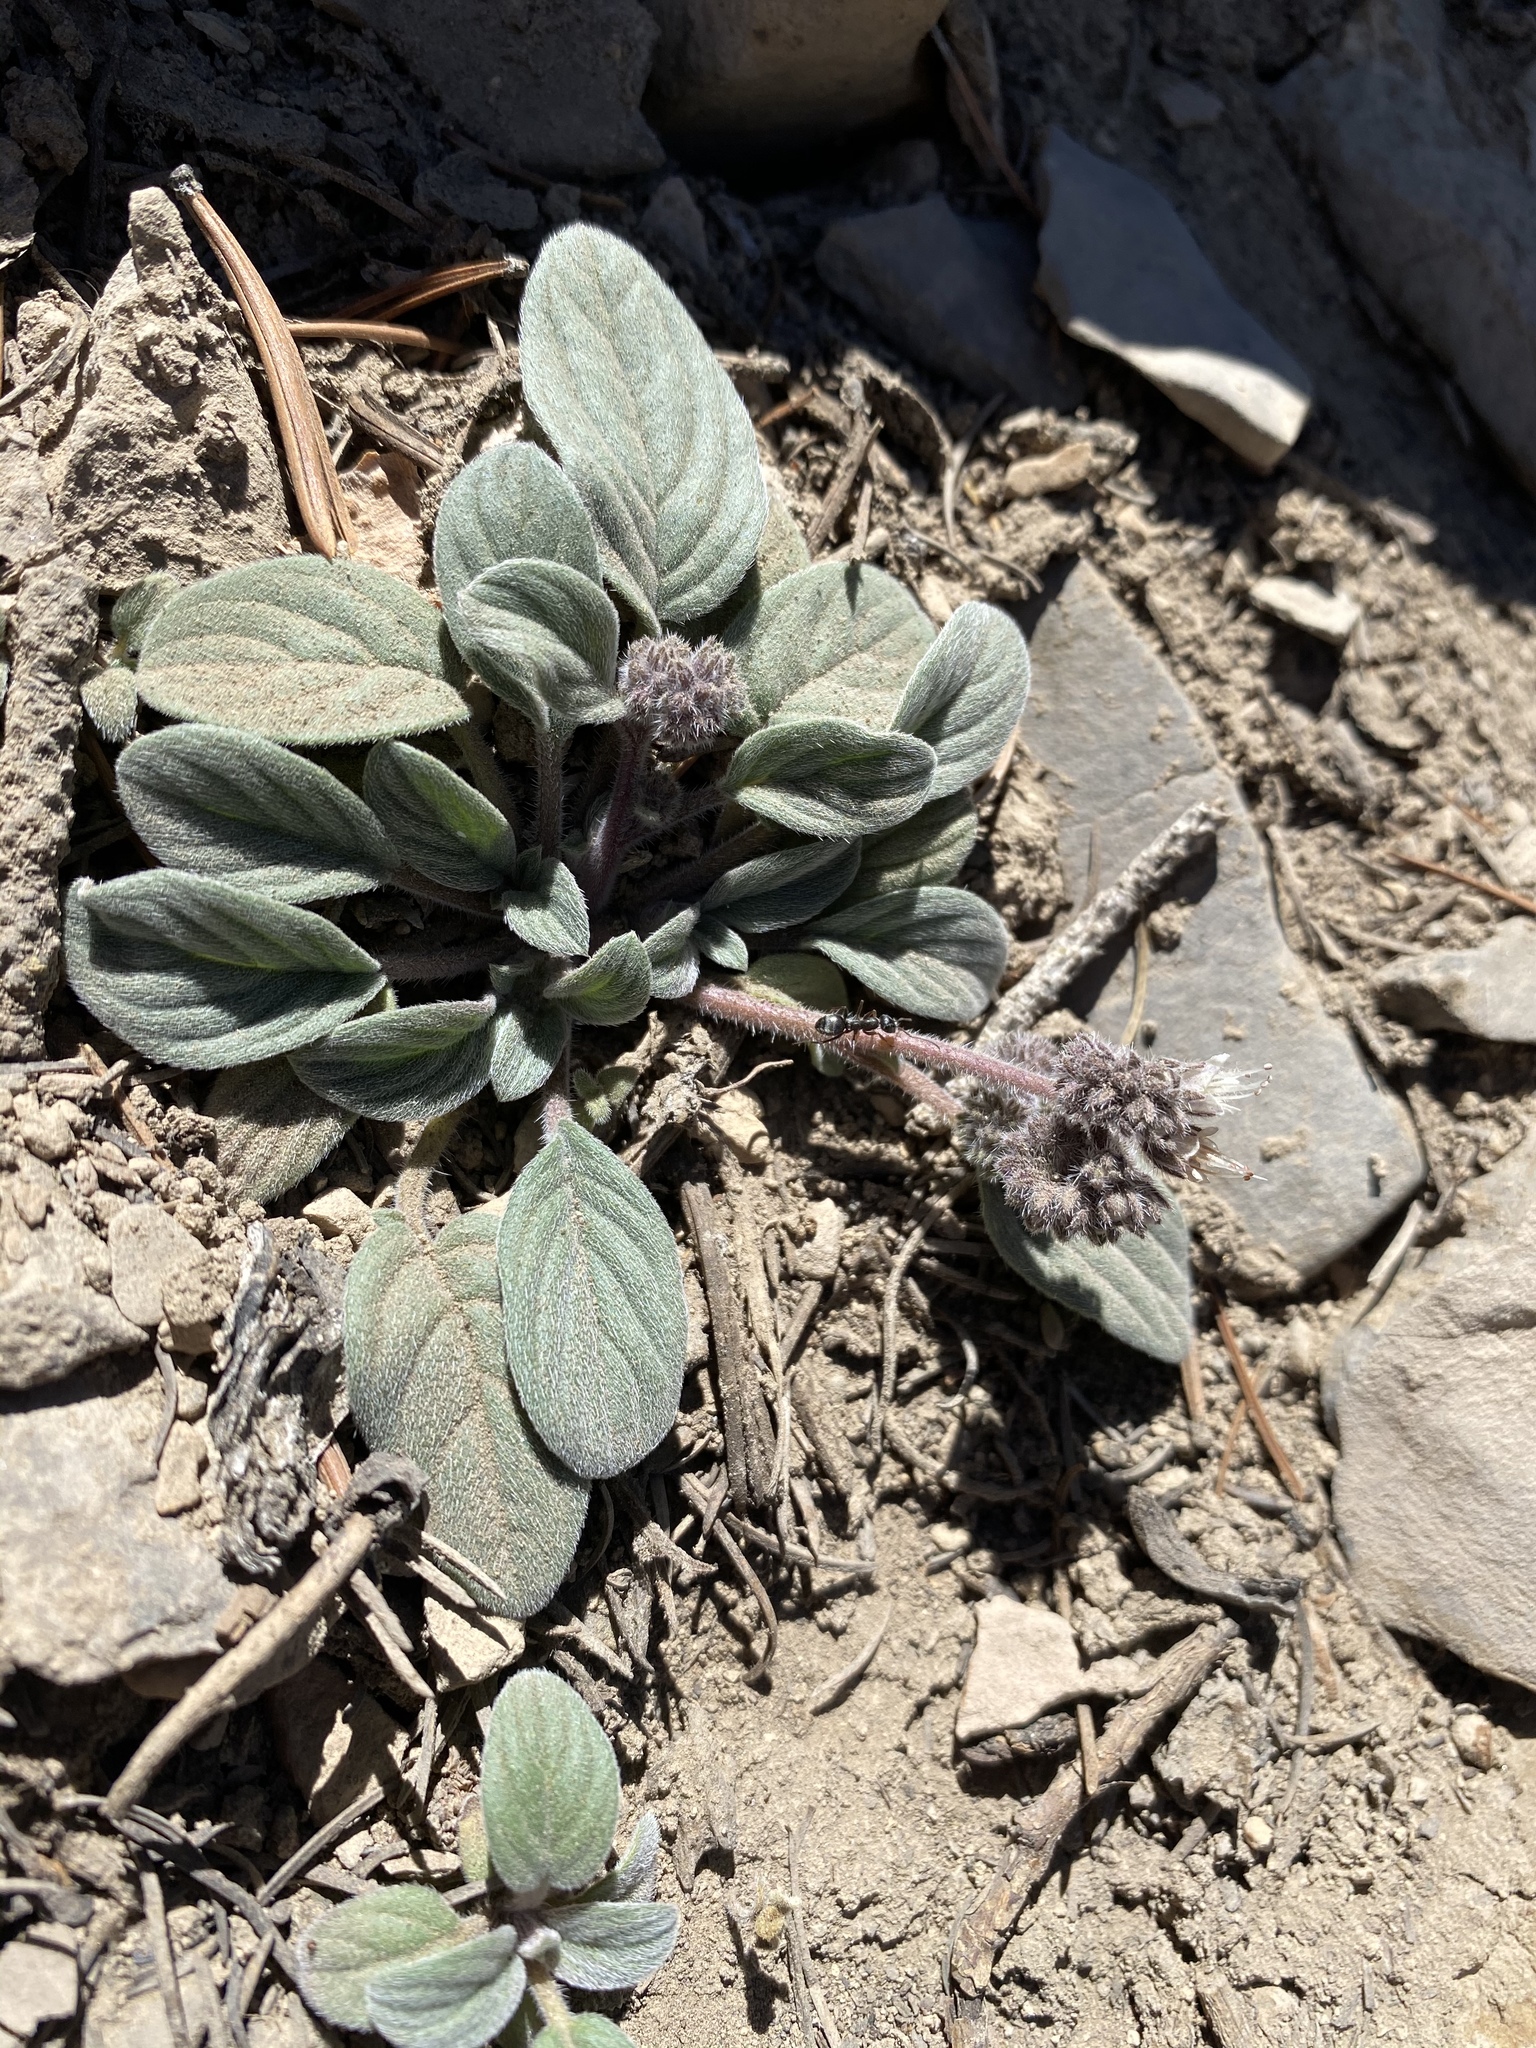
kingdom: Plantae
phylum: Tracheophyta
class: Magnoliopsida
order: Boraginales
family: Hydrophyllaceae
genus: Phacelia
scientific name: Phacelia hastata
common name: Silver-leaved phacelia
